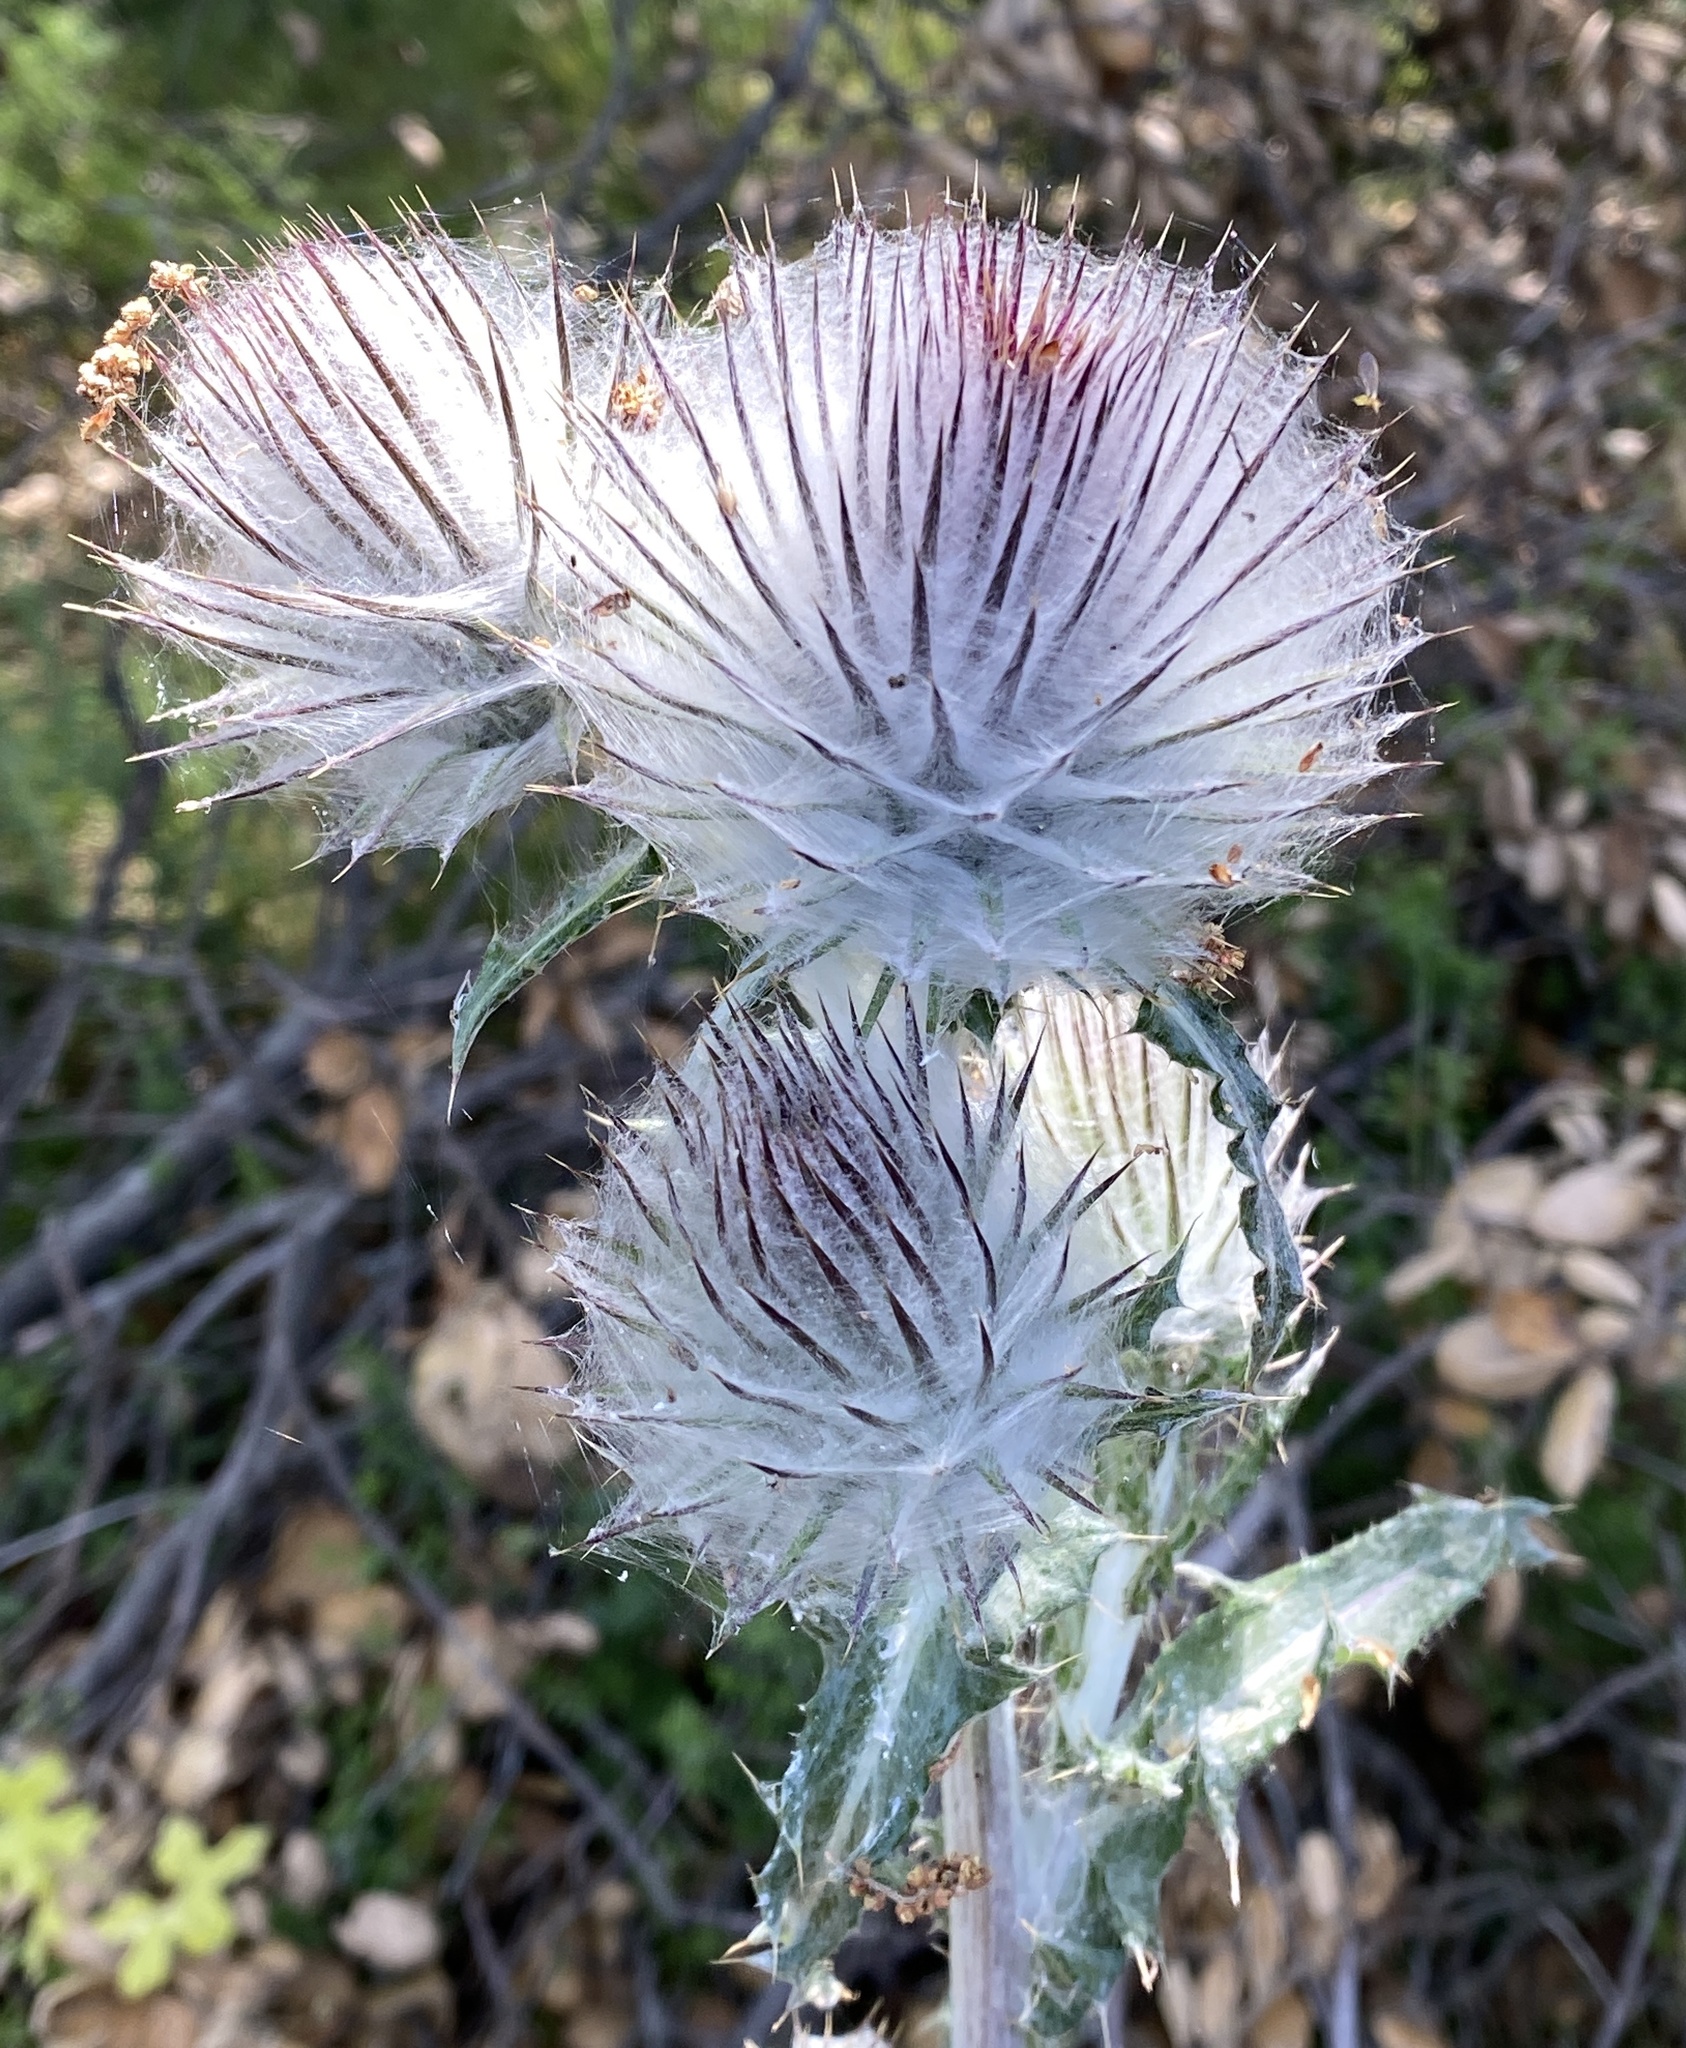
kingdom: Plantae
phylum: Tracheophyta
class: Magnoliopsida
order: Asterales
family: Asteraceae
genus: Cirsium
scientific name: Cirsium occidentale
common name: Western thistle
